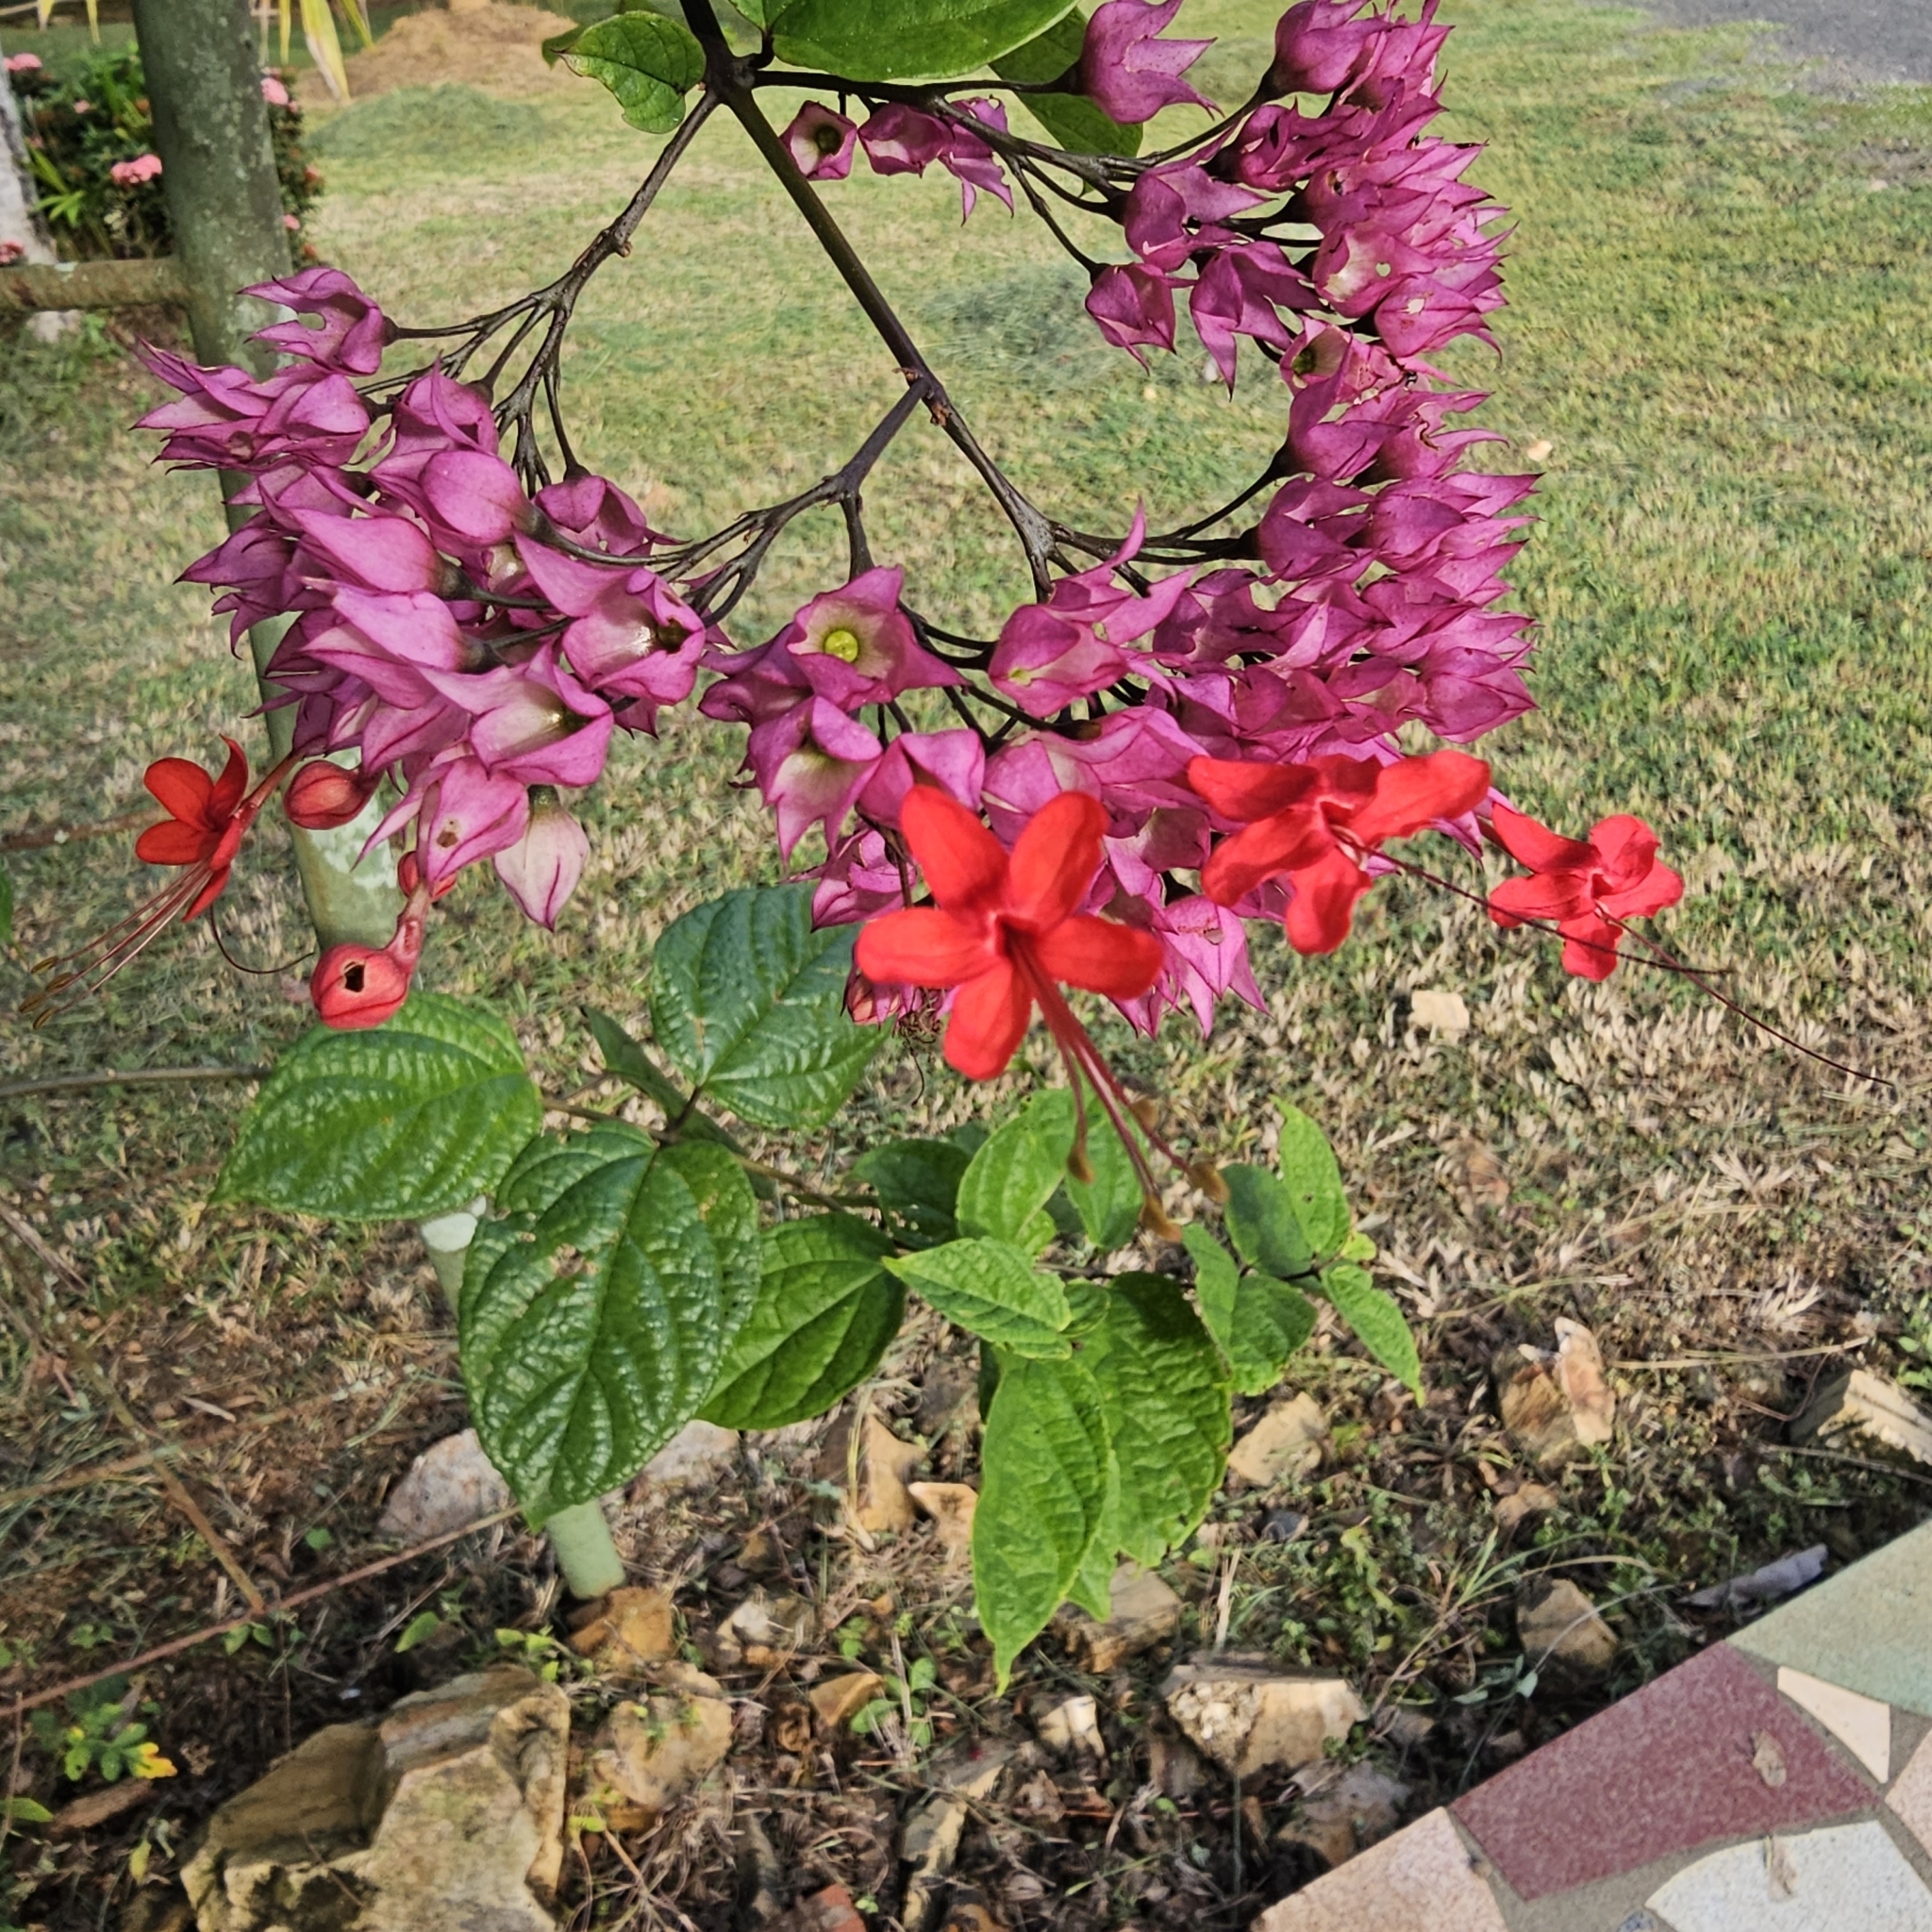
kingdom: Plantae
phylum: Tracheophyta
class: Magnoliopsida
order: Lamiales
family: Lamiaceae
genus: Clerodendrum
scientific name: Clerodendrum speciosum
